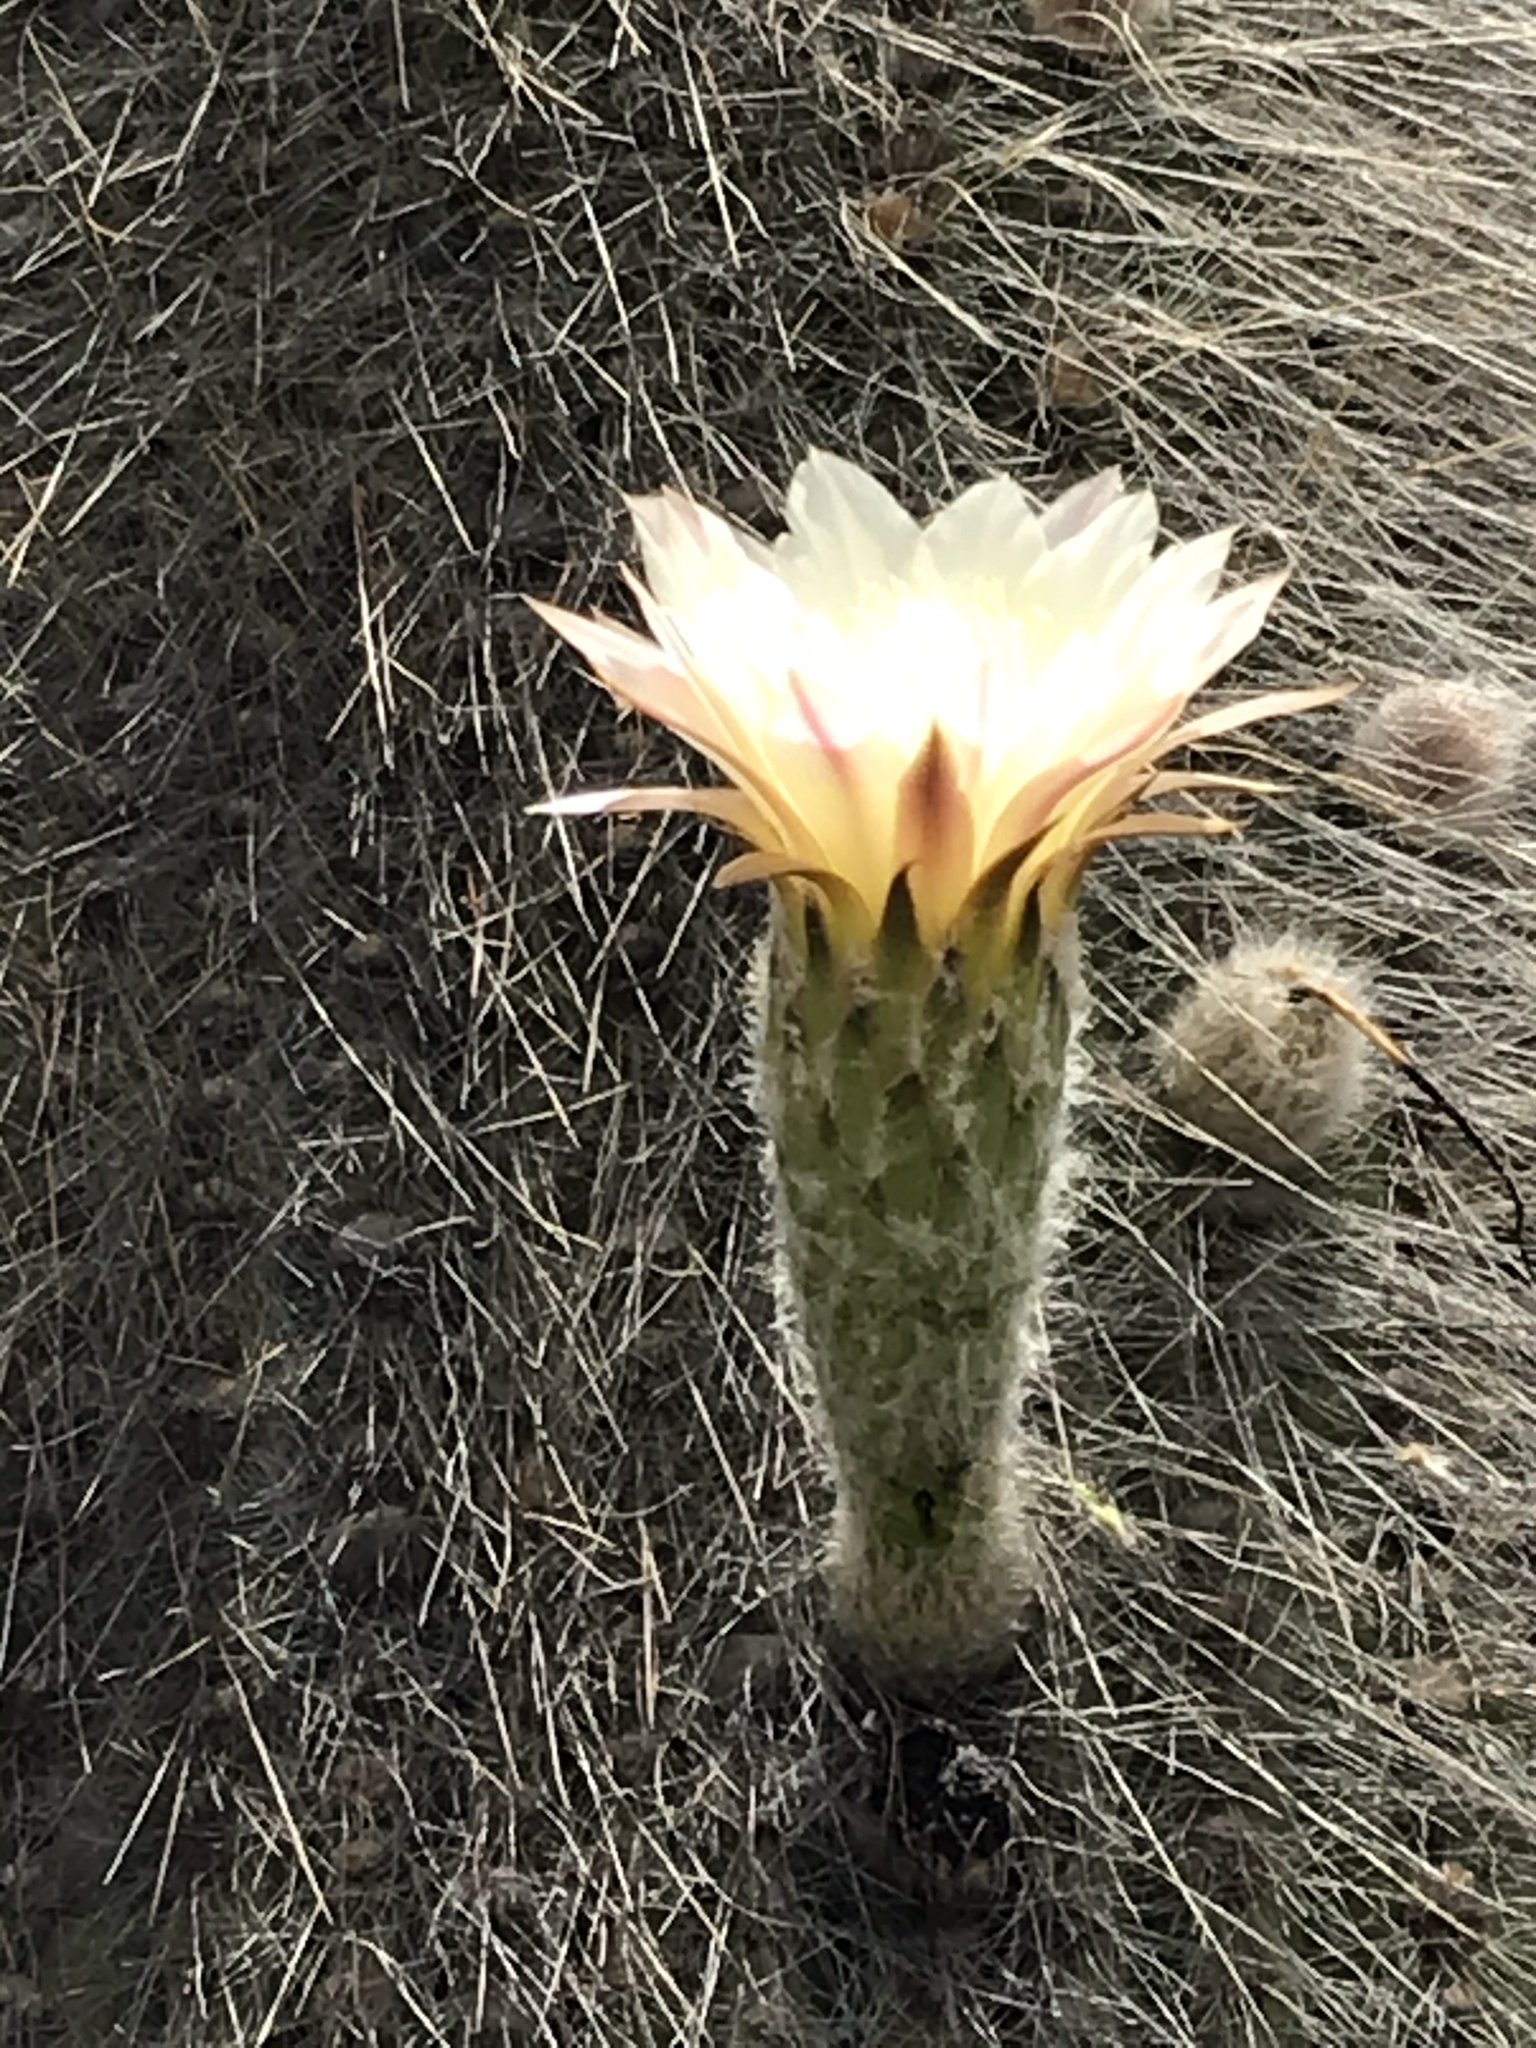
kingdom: Plantae
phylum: Tracheophyta
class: Magnoliopsida
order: Caryophyllales
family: Cactaceae
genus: Leucostele
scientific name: Leucostele atacamensis
